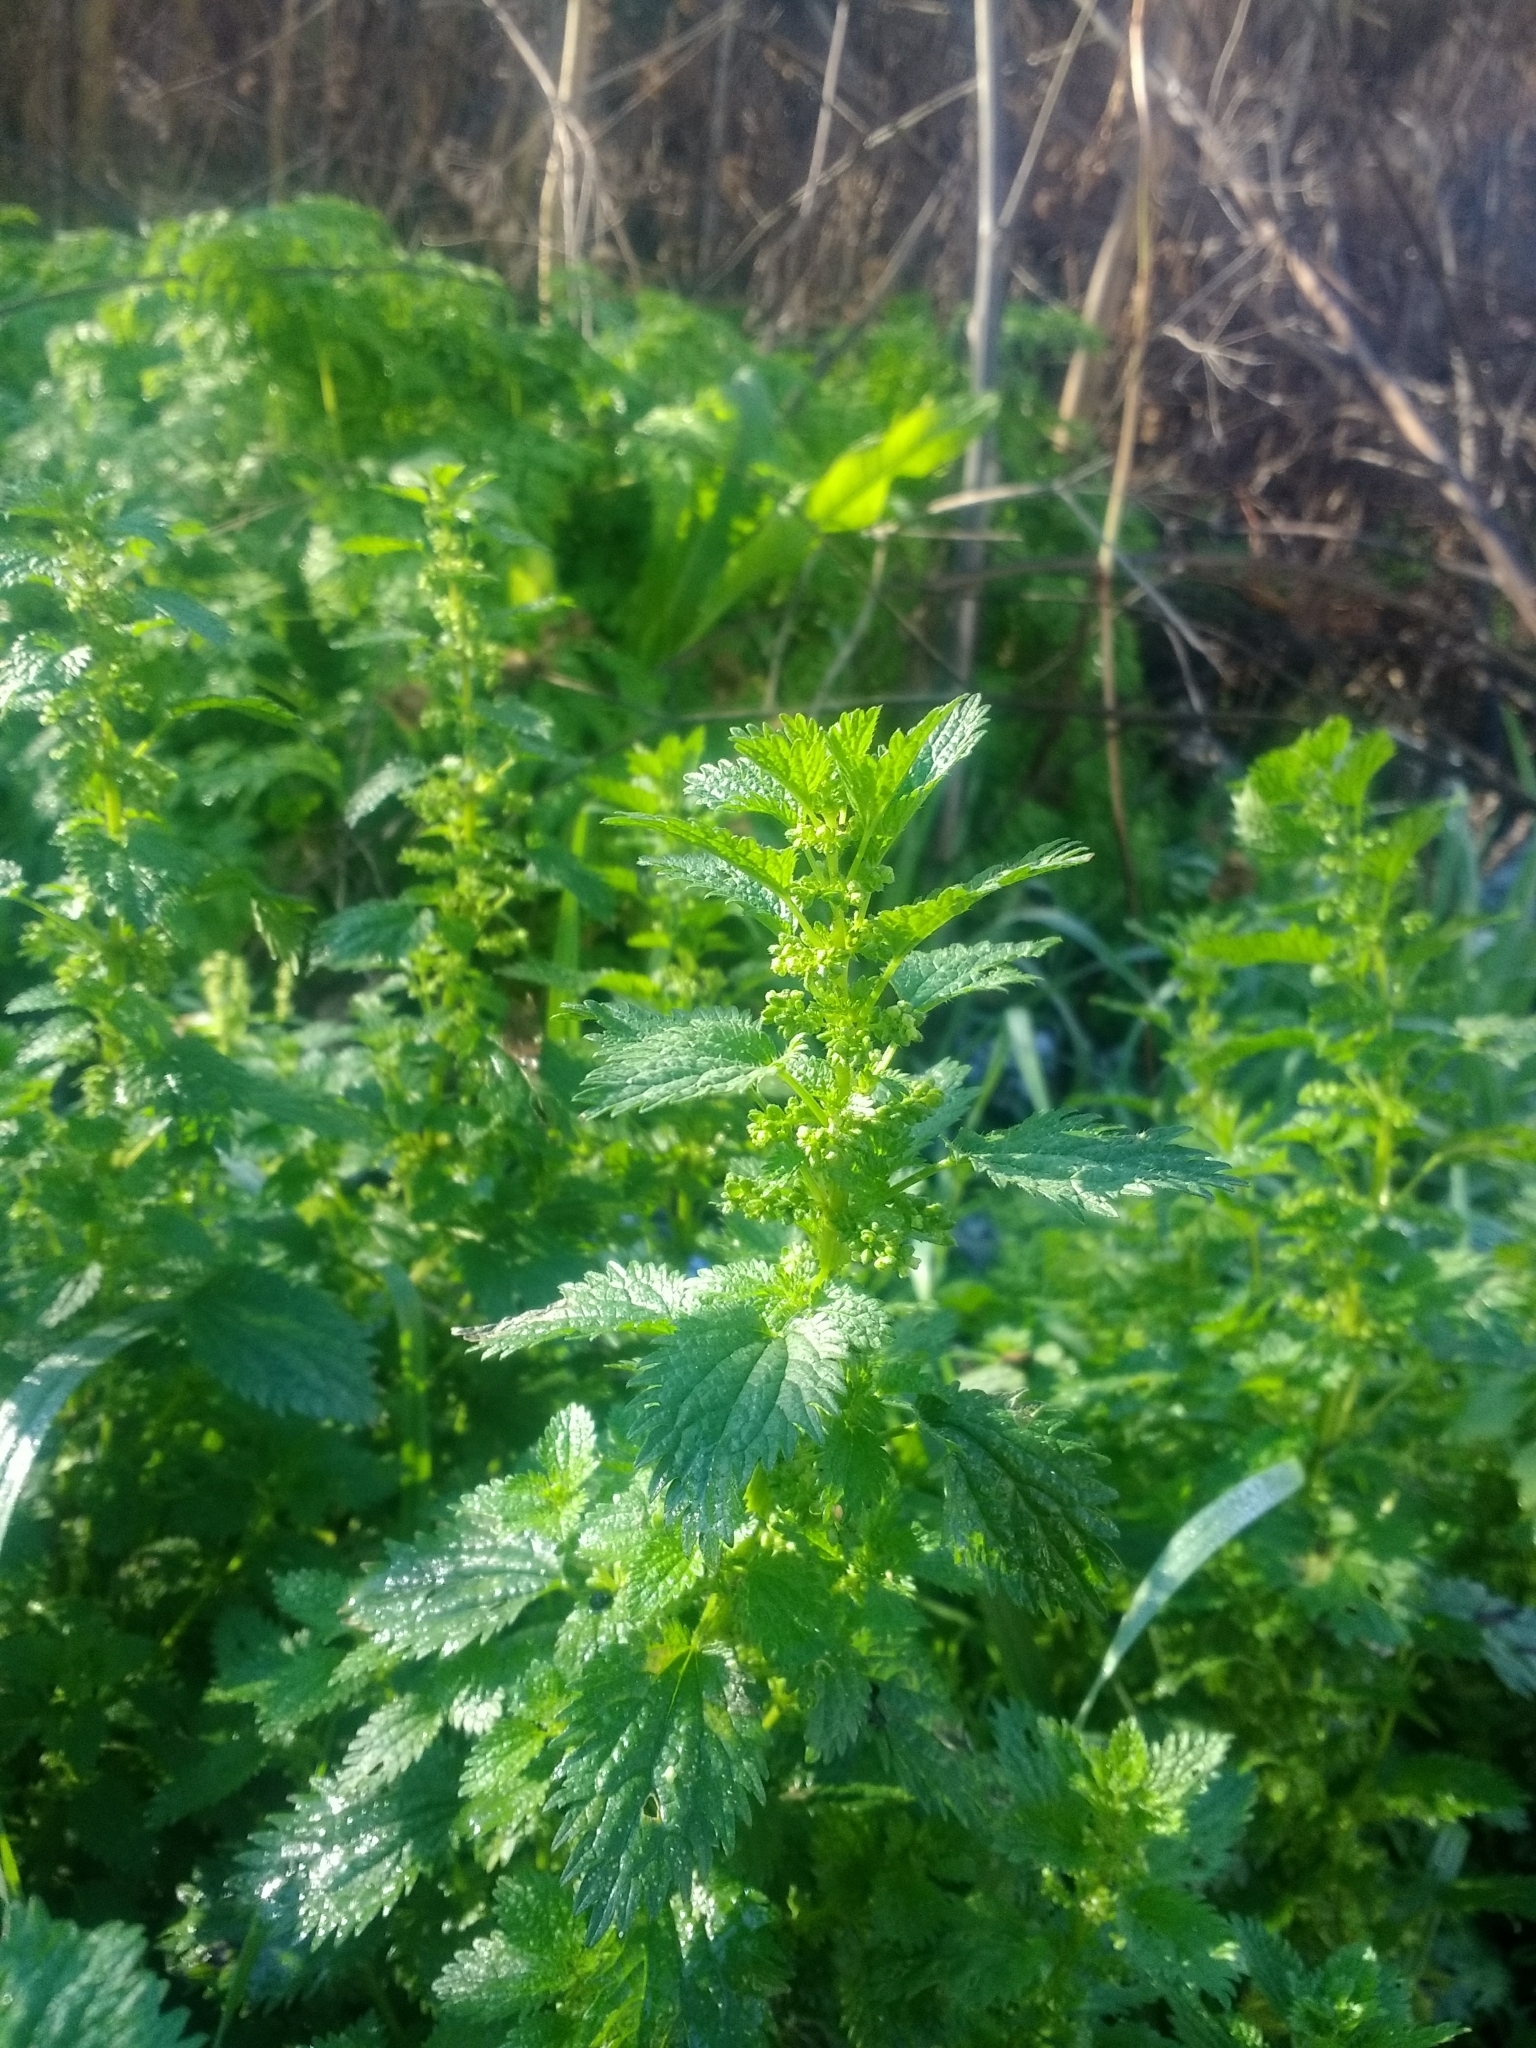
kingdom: Plantae
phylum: Tracheophyta
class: Magnoliopsida
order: Rosales
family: Urticaceae
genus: Urtica
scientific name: Urtica urens
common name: Dwarf nettle
